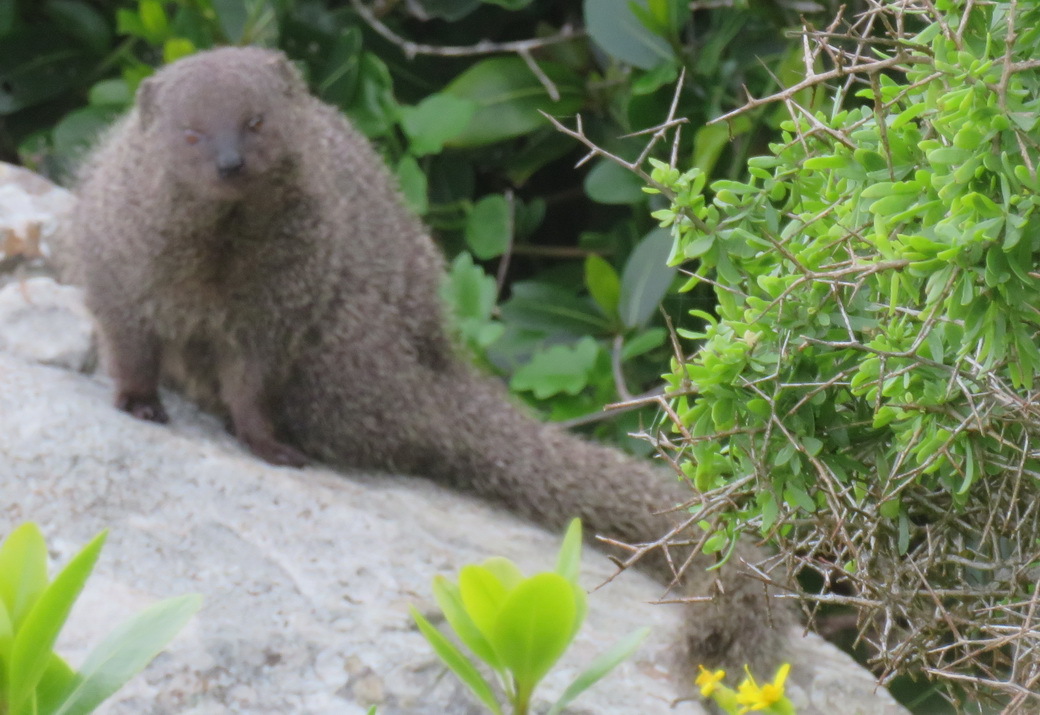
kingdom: Animalia
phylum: Chordata
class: Mammalia
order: Carnivora
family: Herpestidae
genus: Galerella
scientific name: Galerella pulverulenta
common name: Cape gray mongoose
